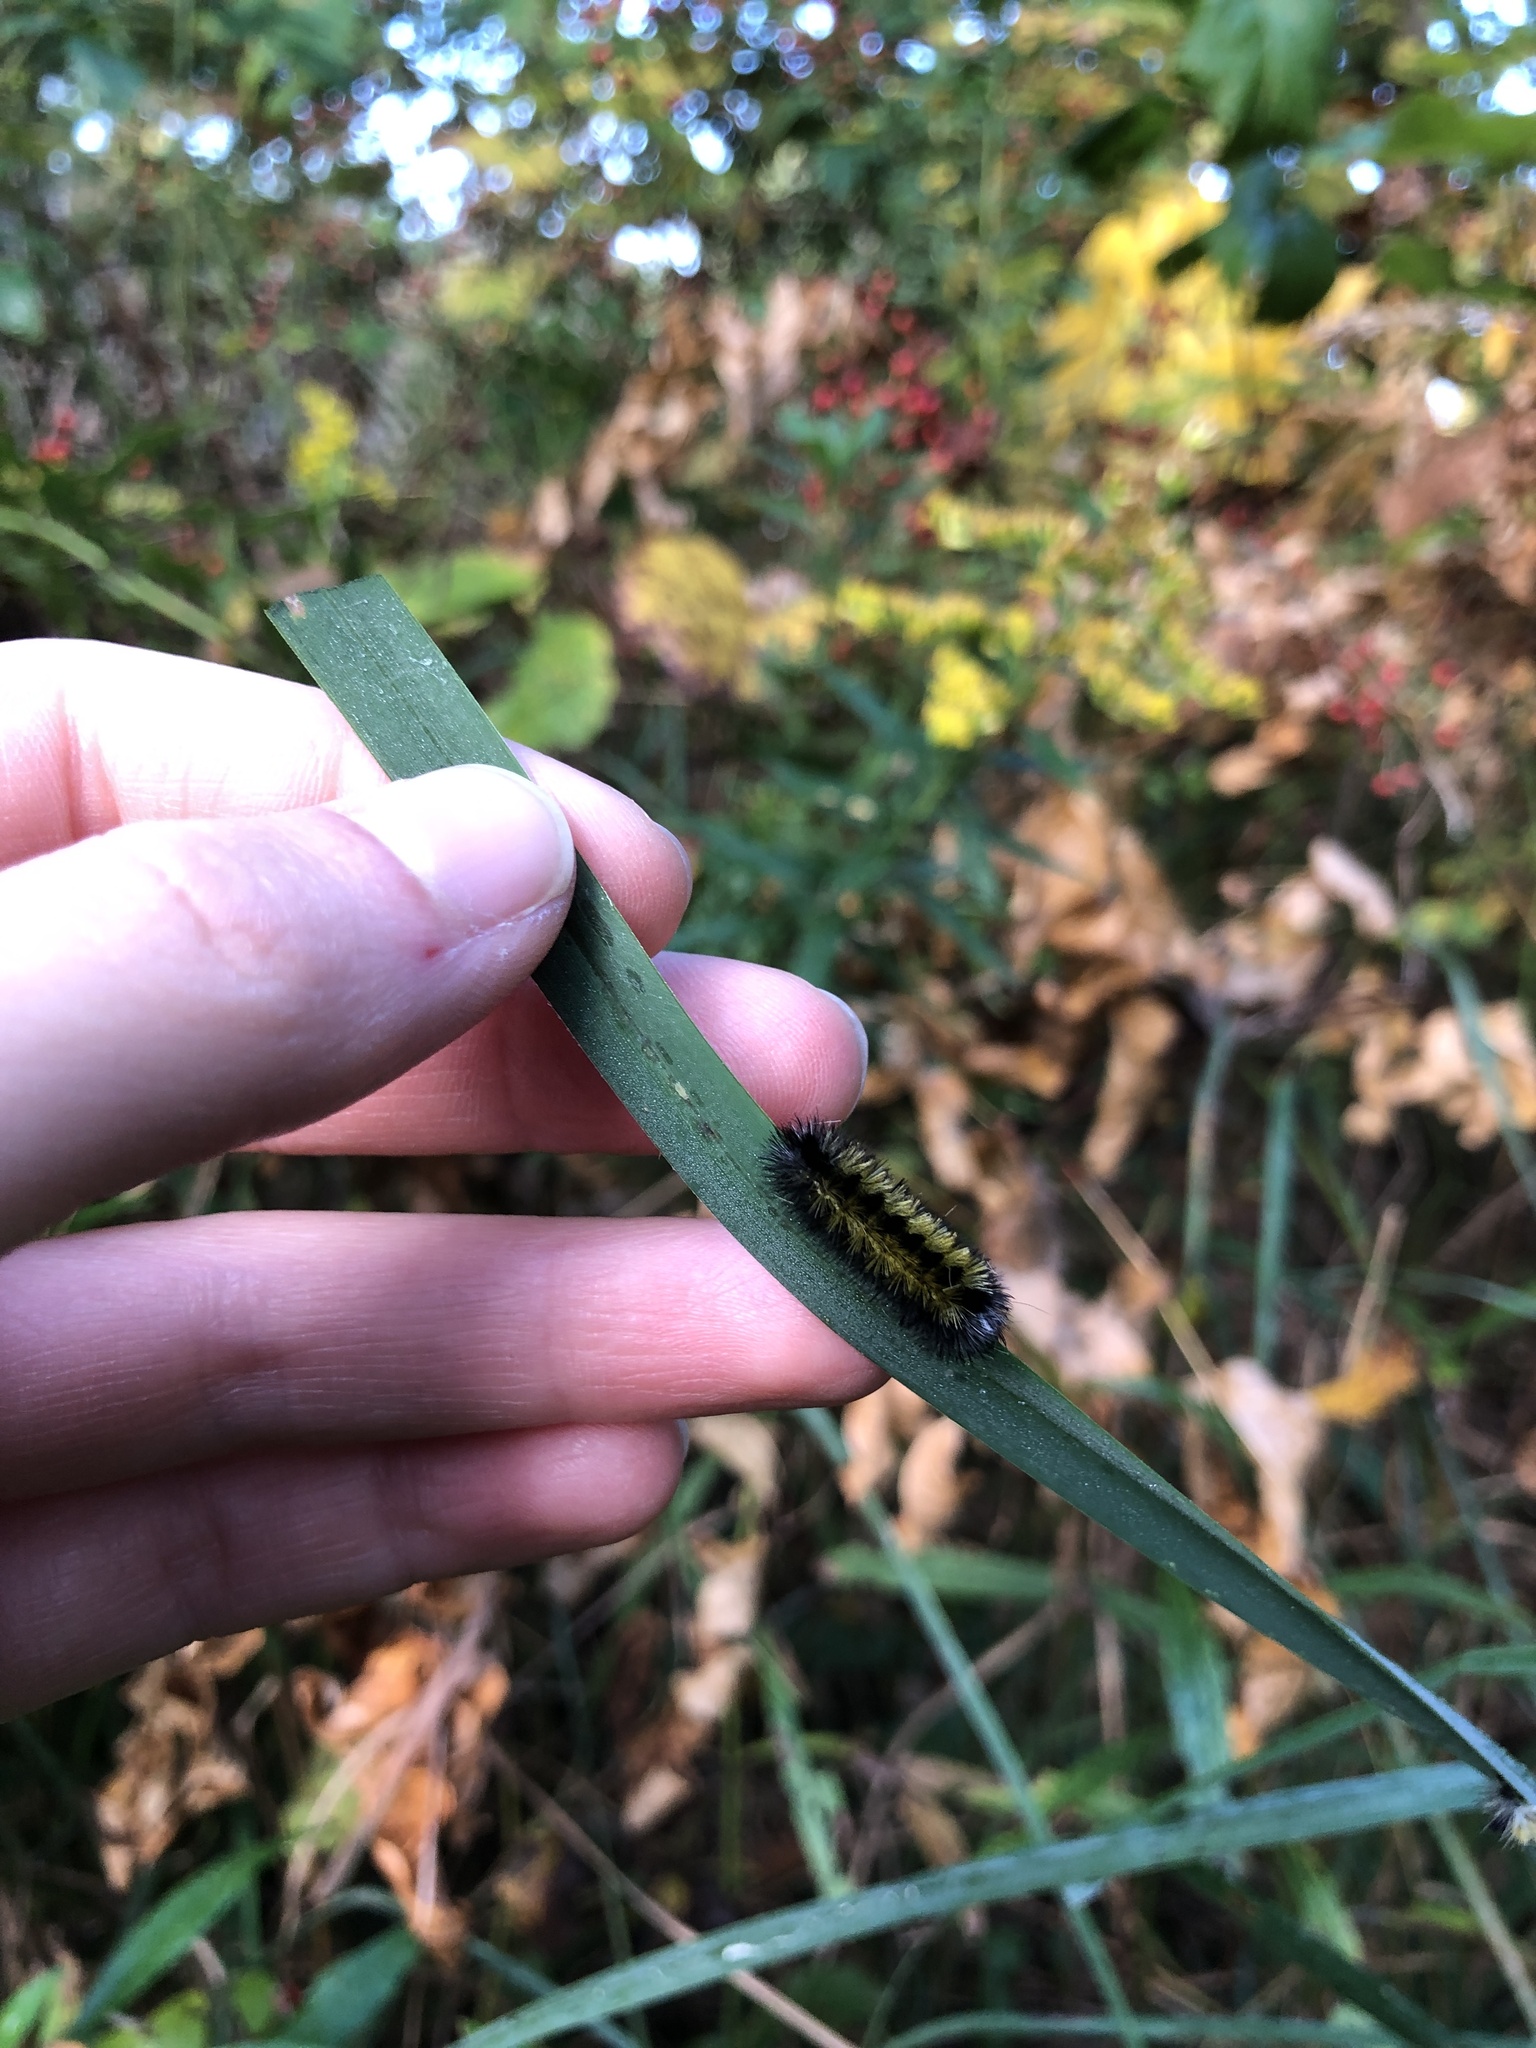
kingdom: Animalia
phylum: Arthropoda
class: Insecta
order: Lepidoptera
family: Erebidae
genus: Ctenucha
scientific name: Ctenucha virginica
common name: Virginia ctenucha moth
